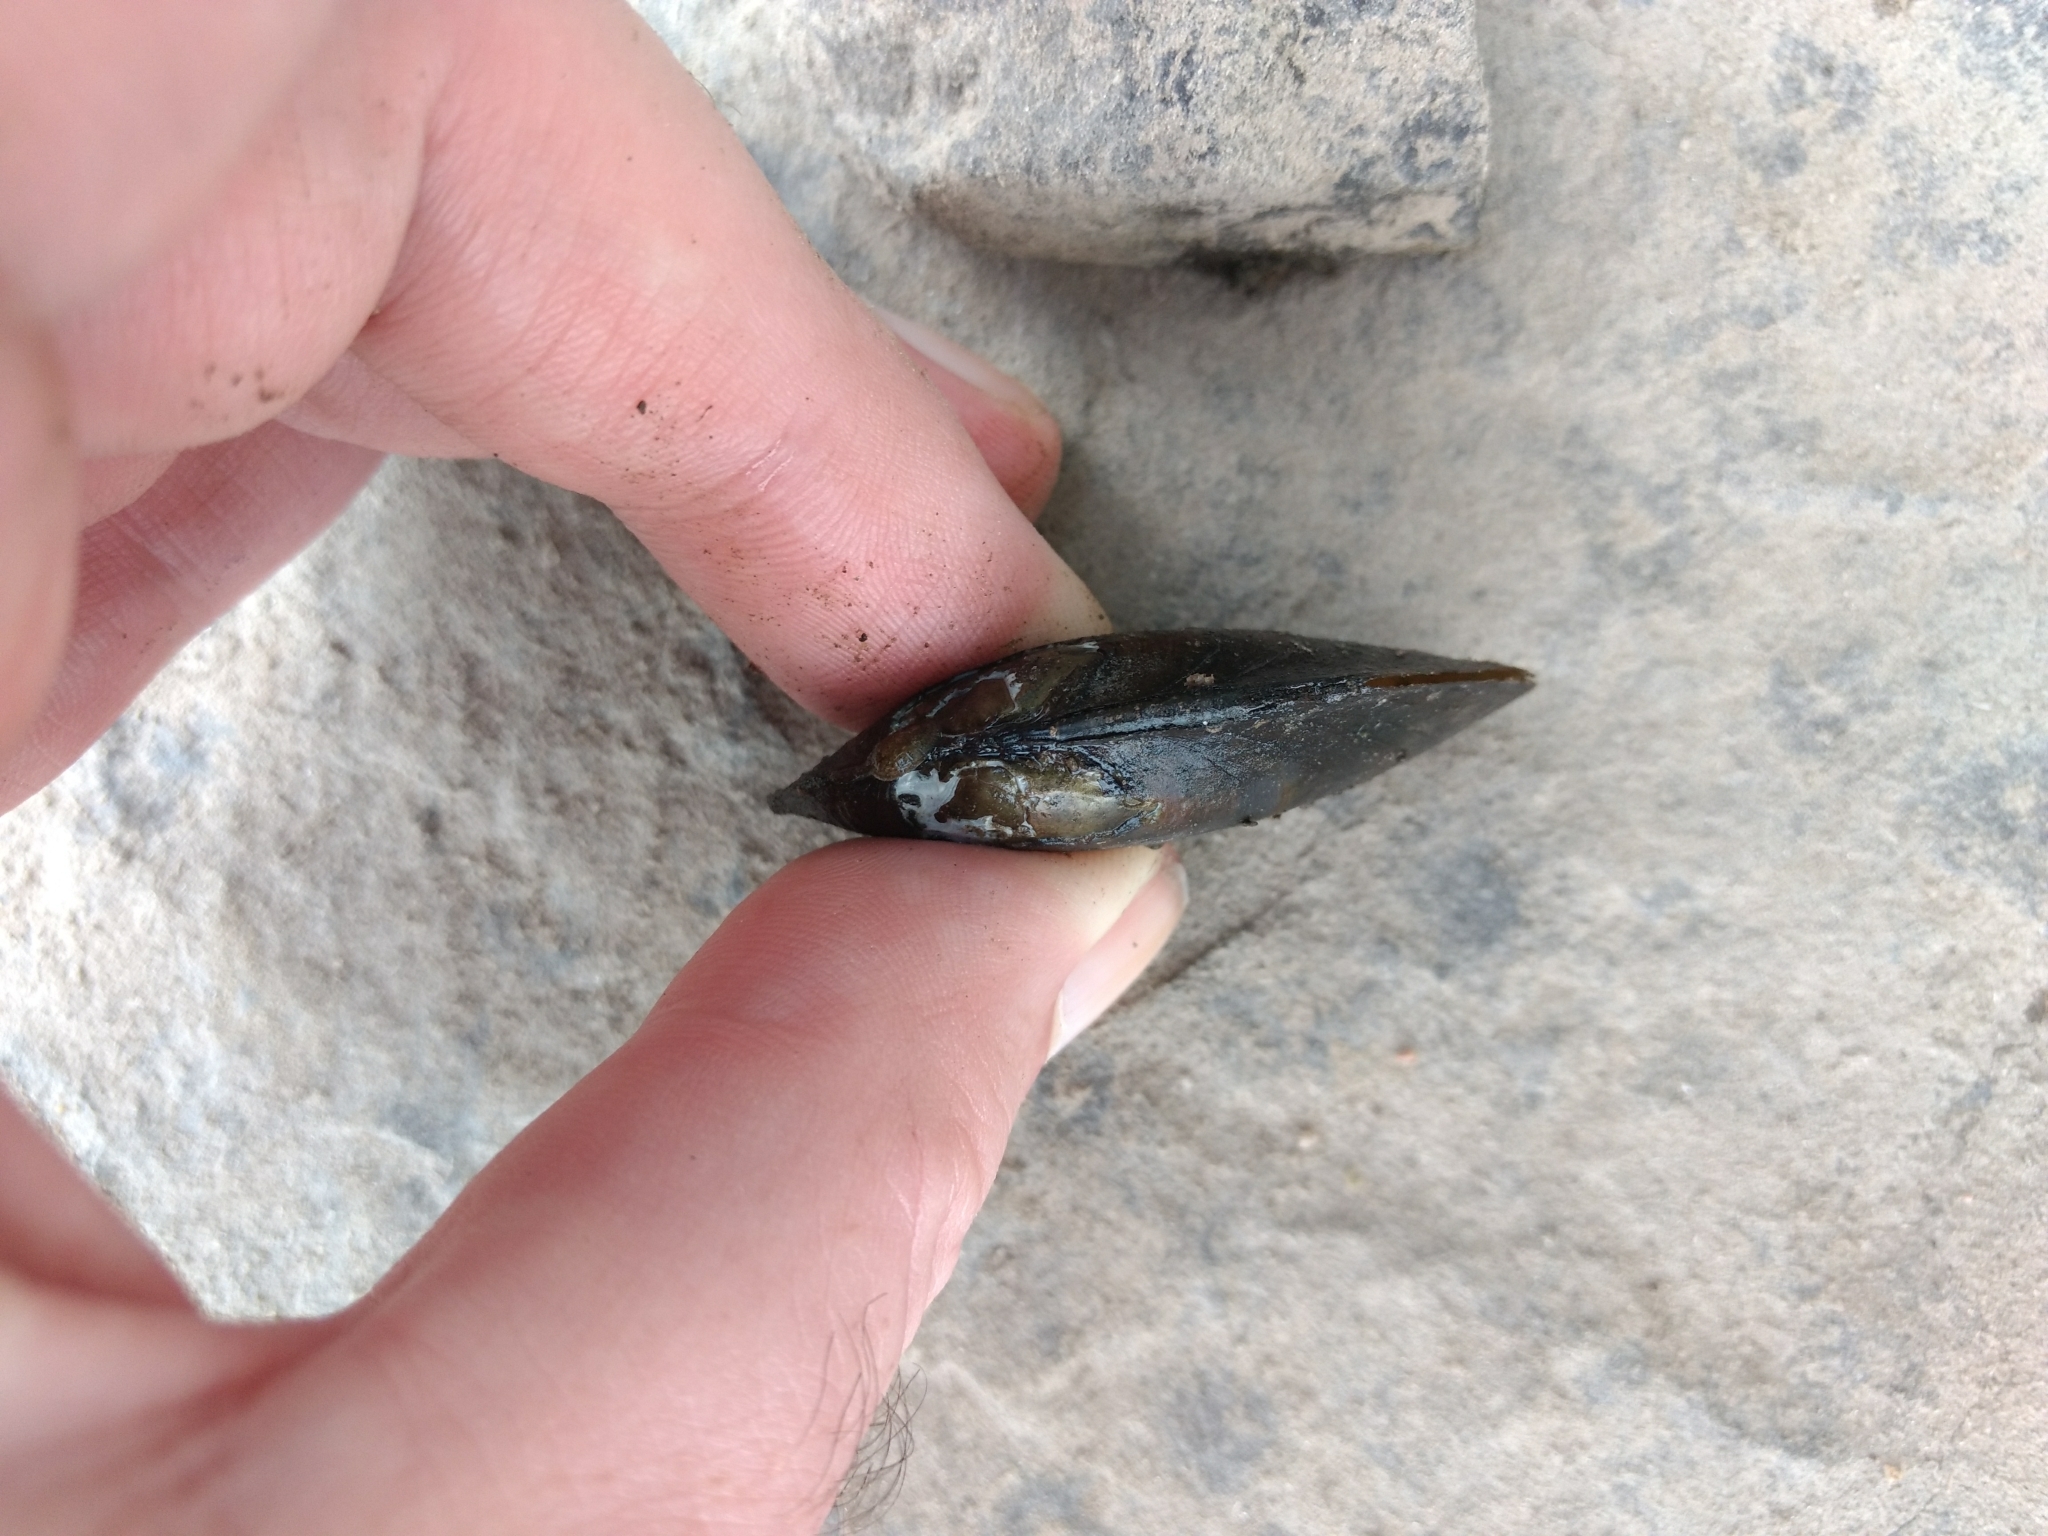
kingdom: Animalia
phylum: Mollusca
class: Bivalvia
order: Unionida
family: Unionidae
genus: Elliptio
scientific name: Elliptio complanata
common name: Eastern elliptio
